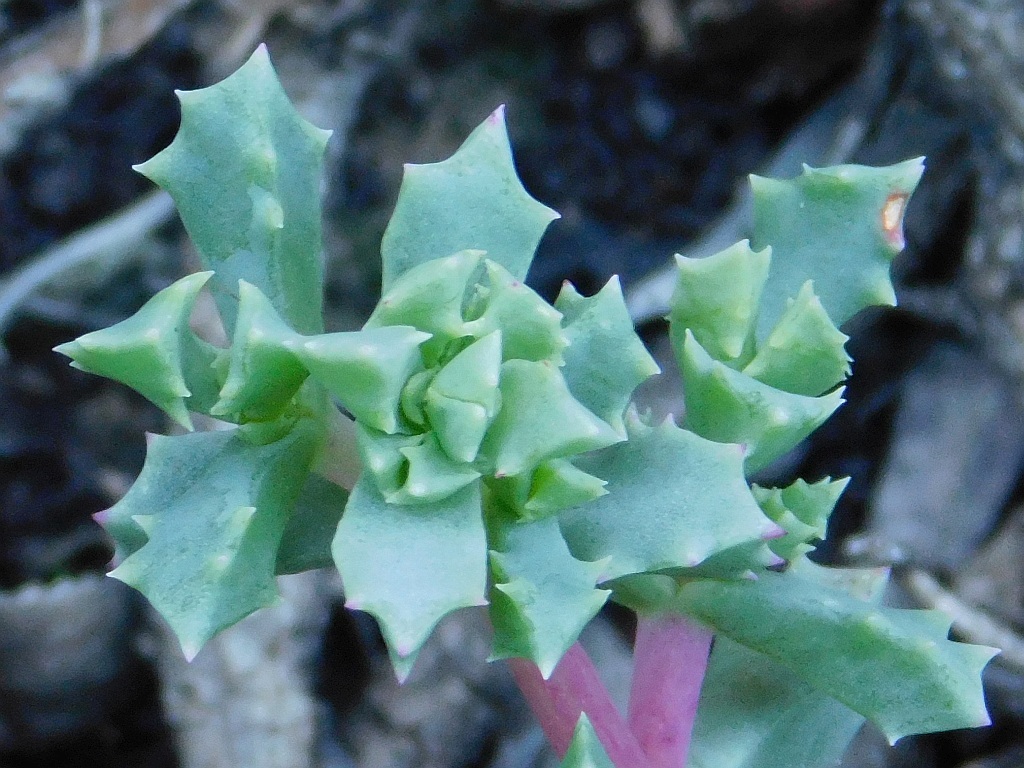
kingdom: Plantae
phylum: Tracheophyta
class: Magnoliopsida
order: Caryophyllales
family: Aizoaceae
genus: Oscularia
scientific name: Oscularia deltoides
